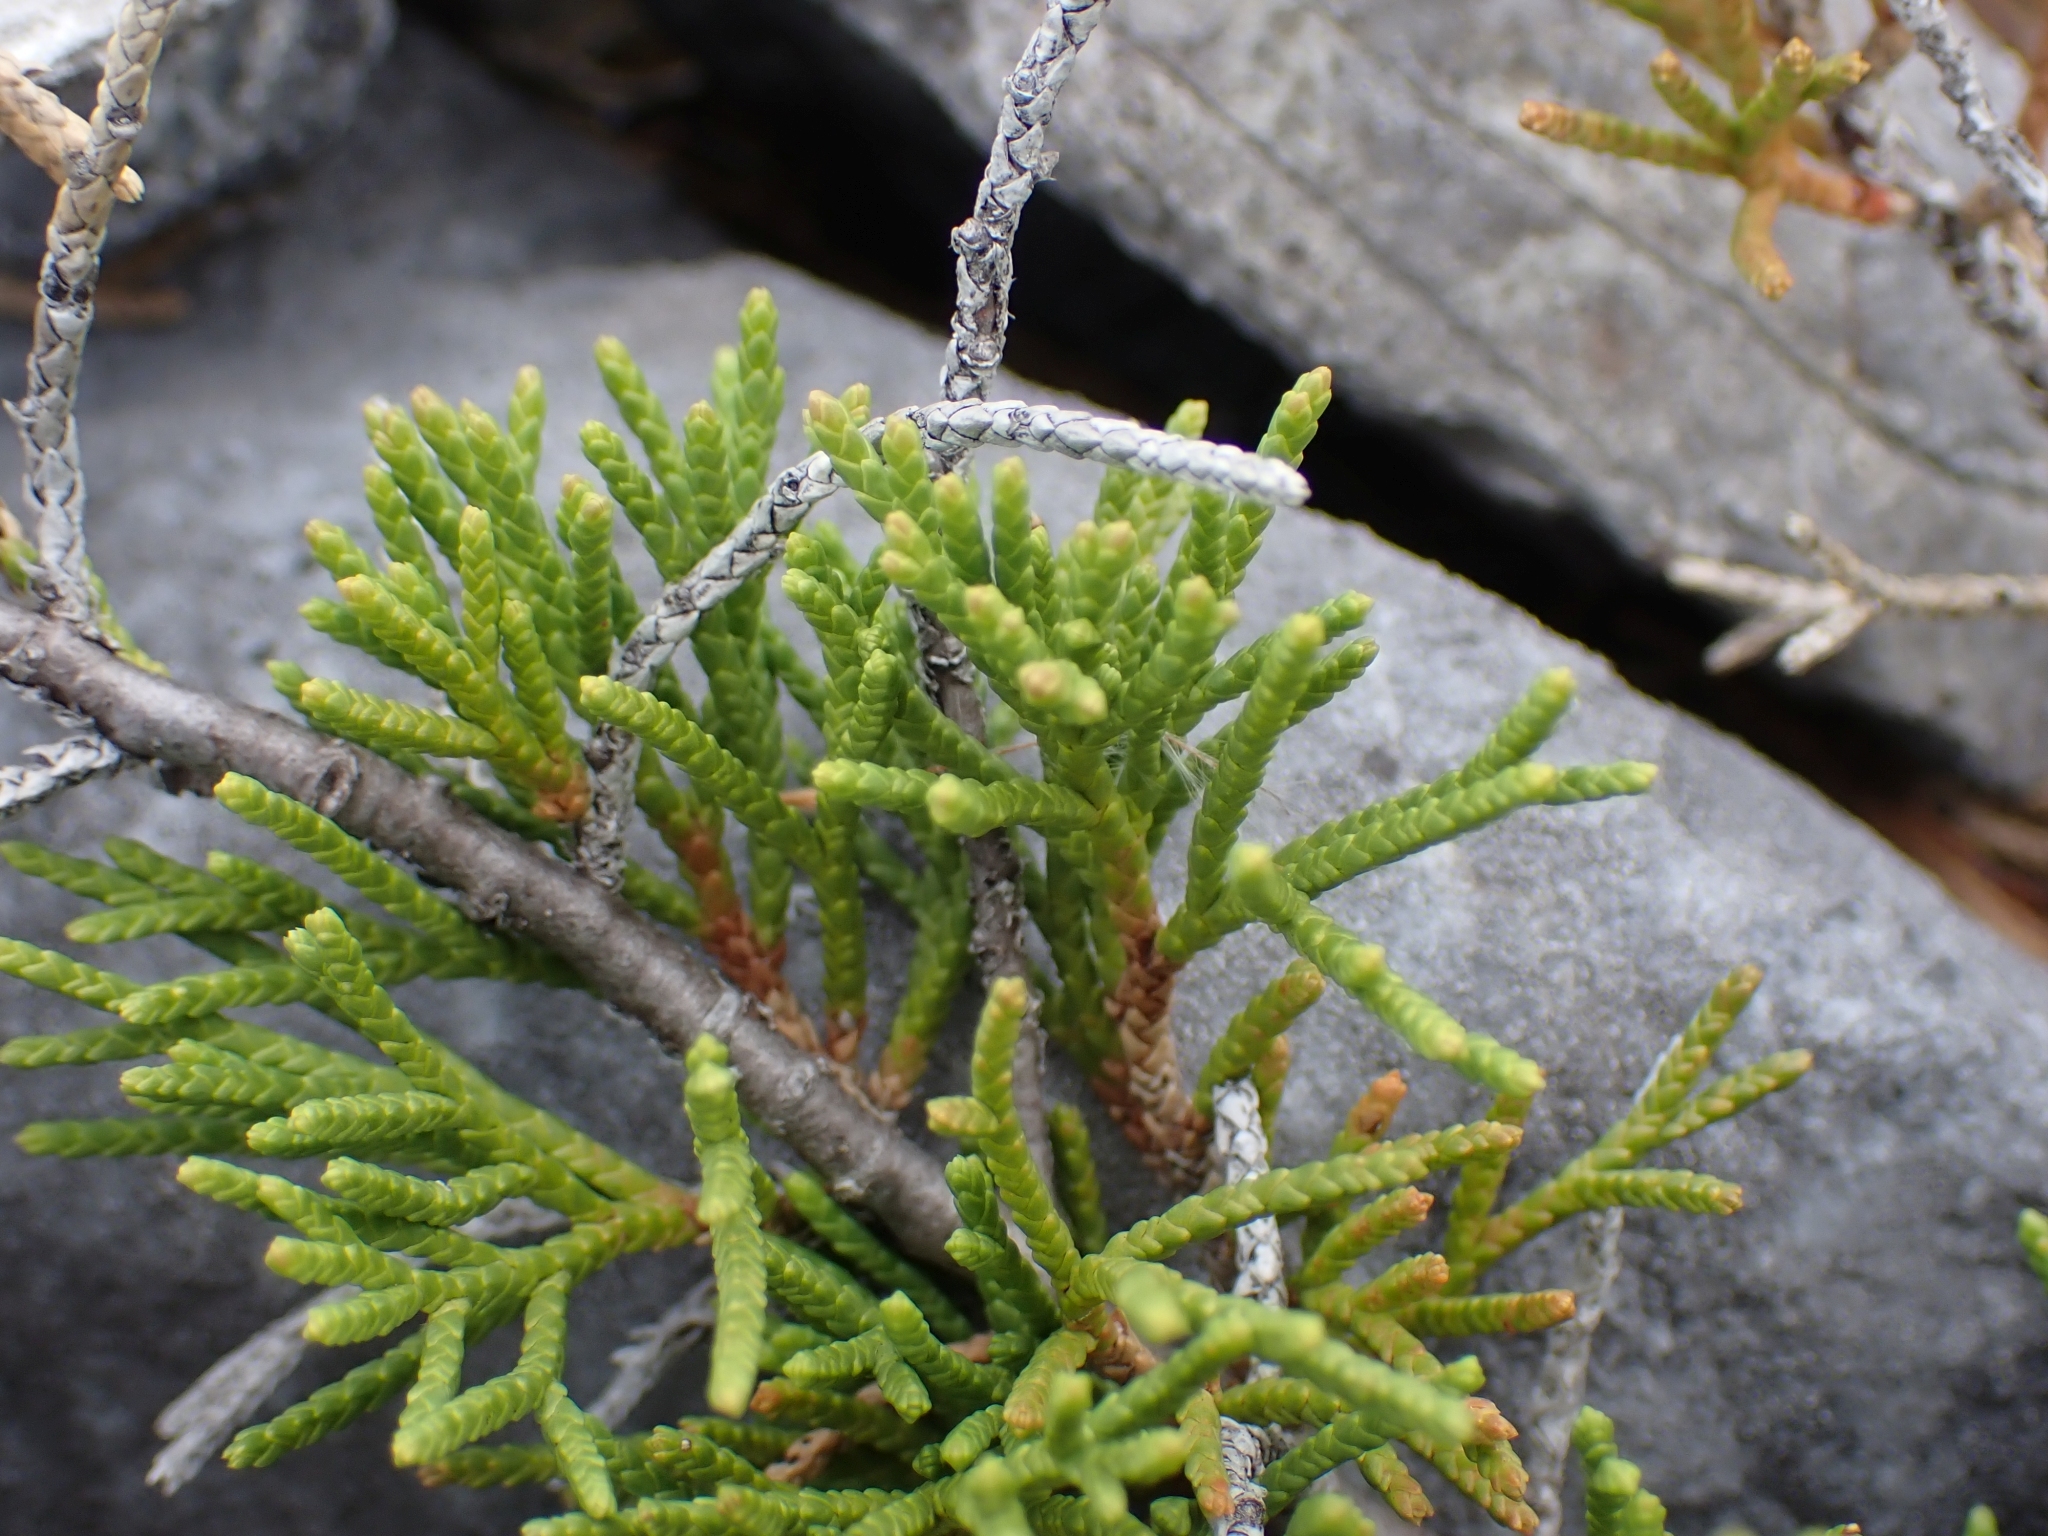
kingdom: Plantae
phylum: Tracheophyta
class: Pinopsida
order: Pinales
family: Cupressaceae
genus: Juniperus
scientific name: Juniperus horizontalis
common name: Creeping juniper
